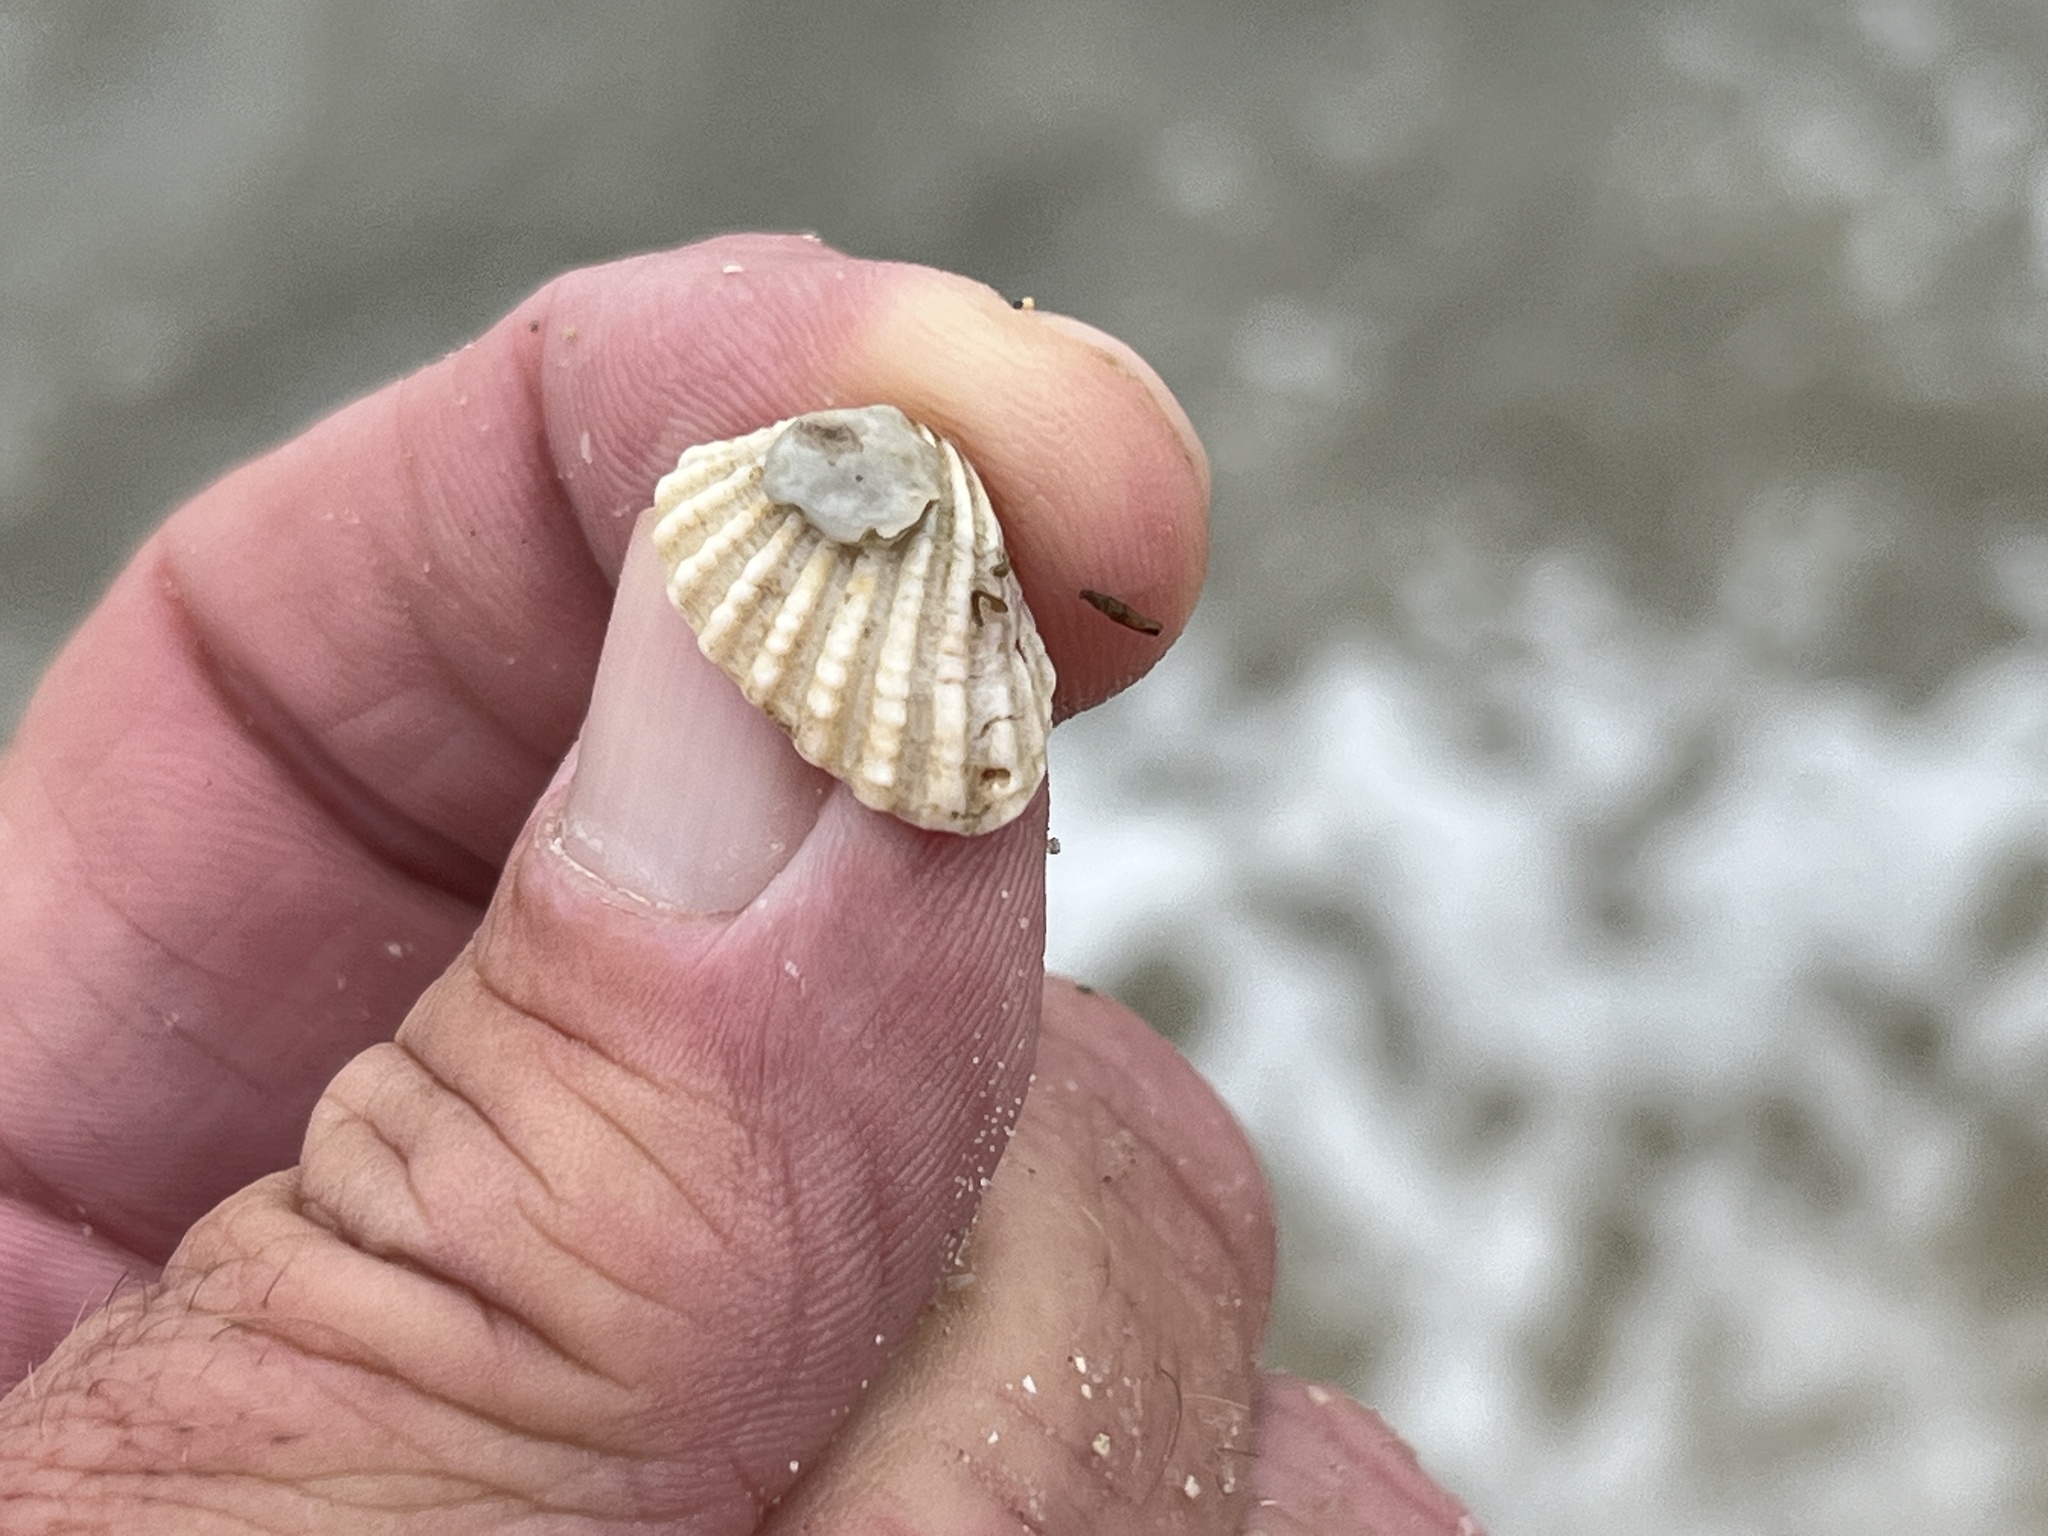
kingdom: Animalia
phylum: Mollusca
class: Bivalvia
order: Carditida
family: Carditidae
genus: Cardites
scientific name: Cardites floridanus
